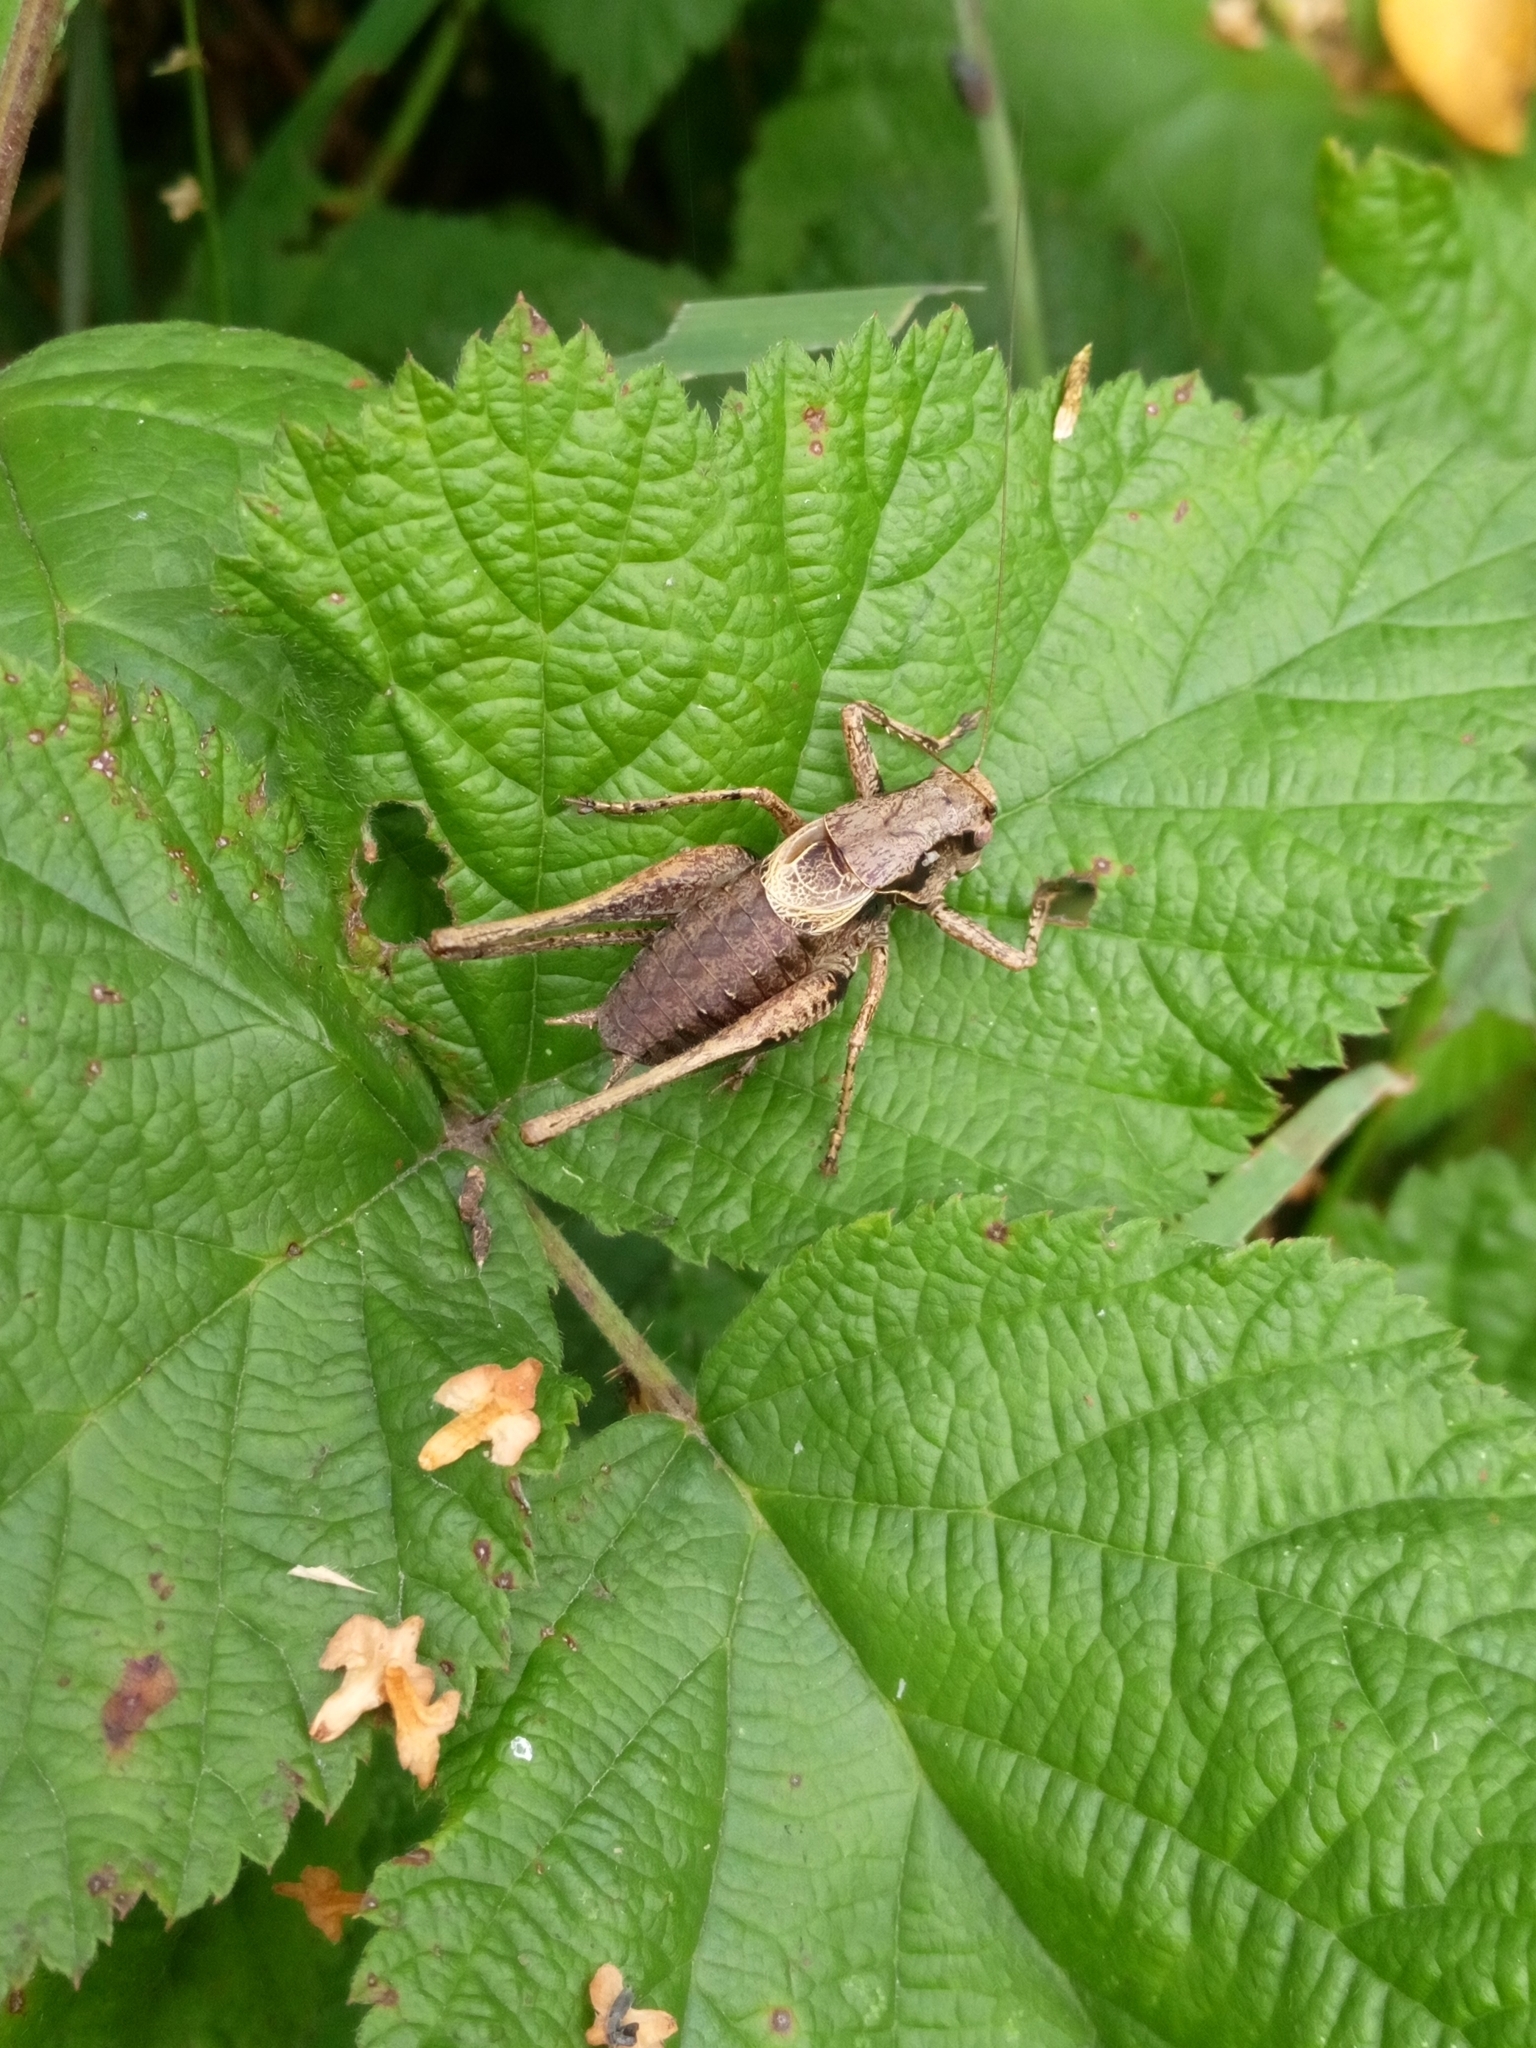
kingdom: Animalia
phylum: Arthropoda
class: Insecta
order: Orthoptera
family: Tettigoniidae
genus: Pholidoptera
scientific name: Pholidoptera griseoaptera
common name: Dark bush-cricket
